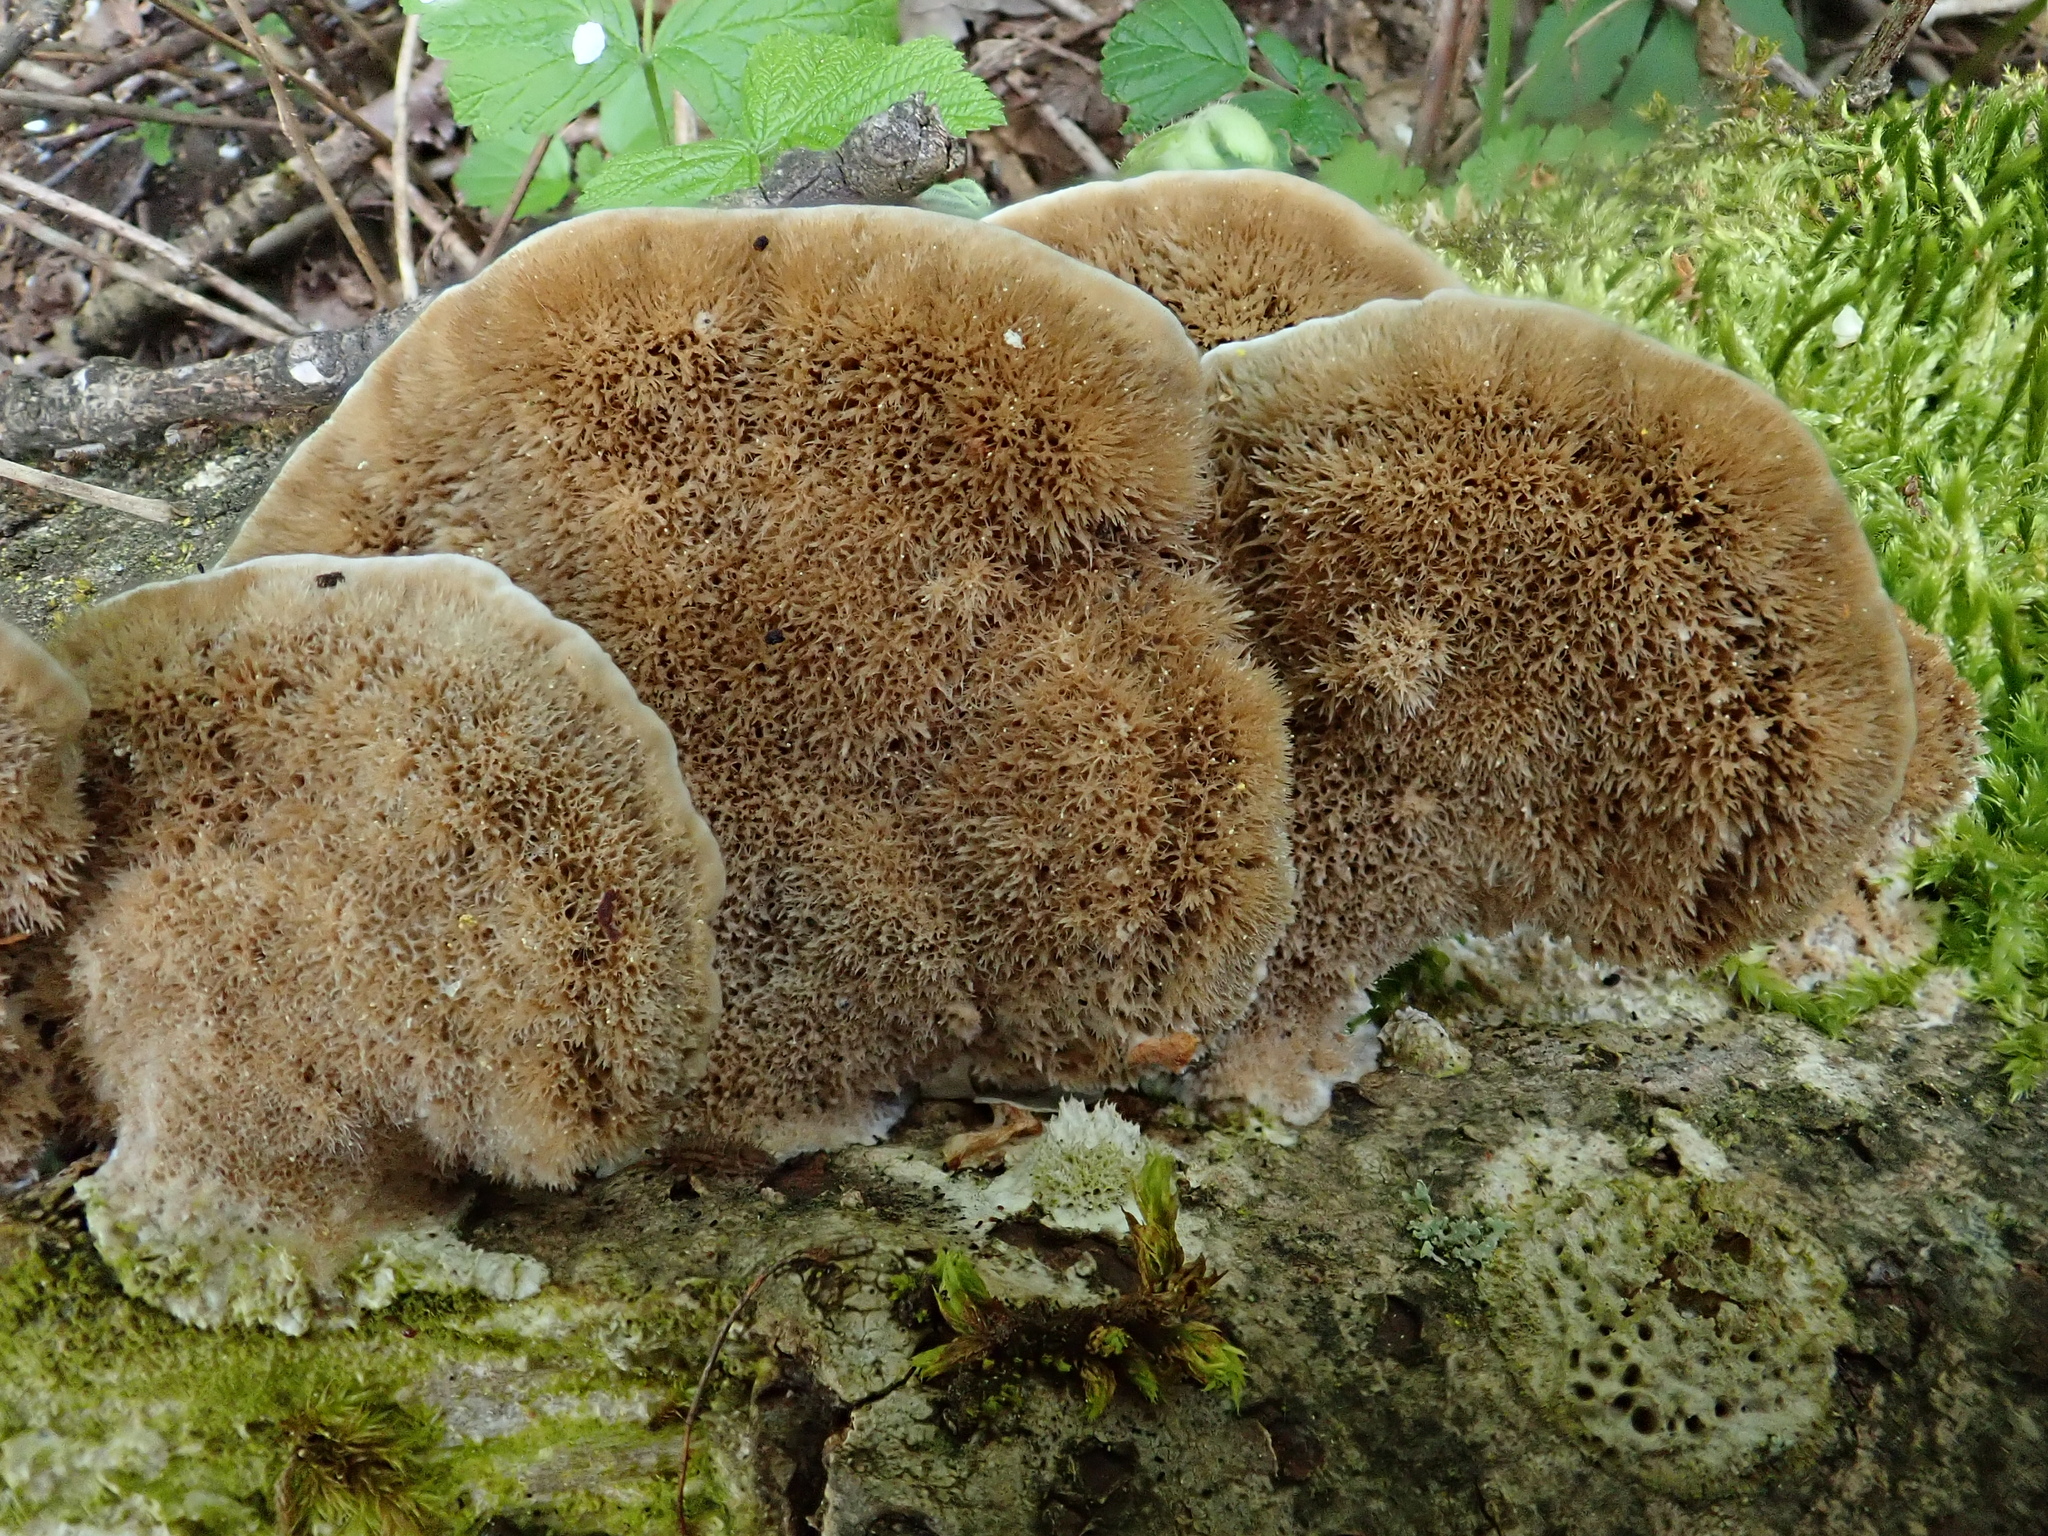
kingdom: Fungi
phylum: Basidiomycota
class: Agaricomycetes
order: Polyporales
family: Polyporaceae
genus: Coriolopsis
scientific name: Coriolopsis gallica
